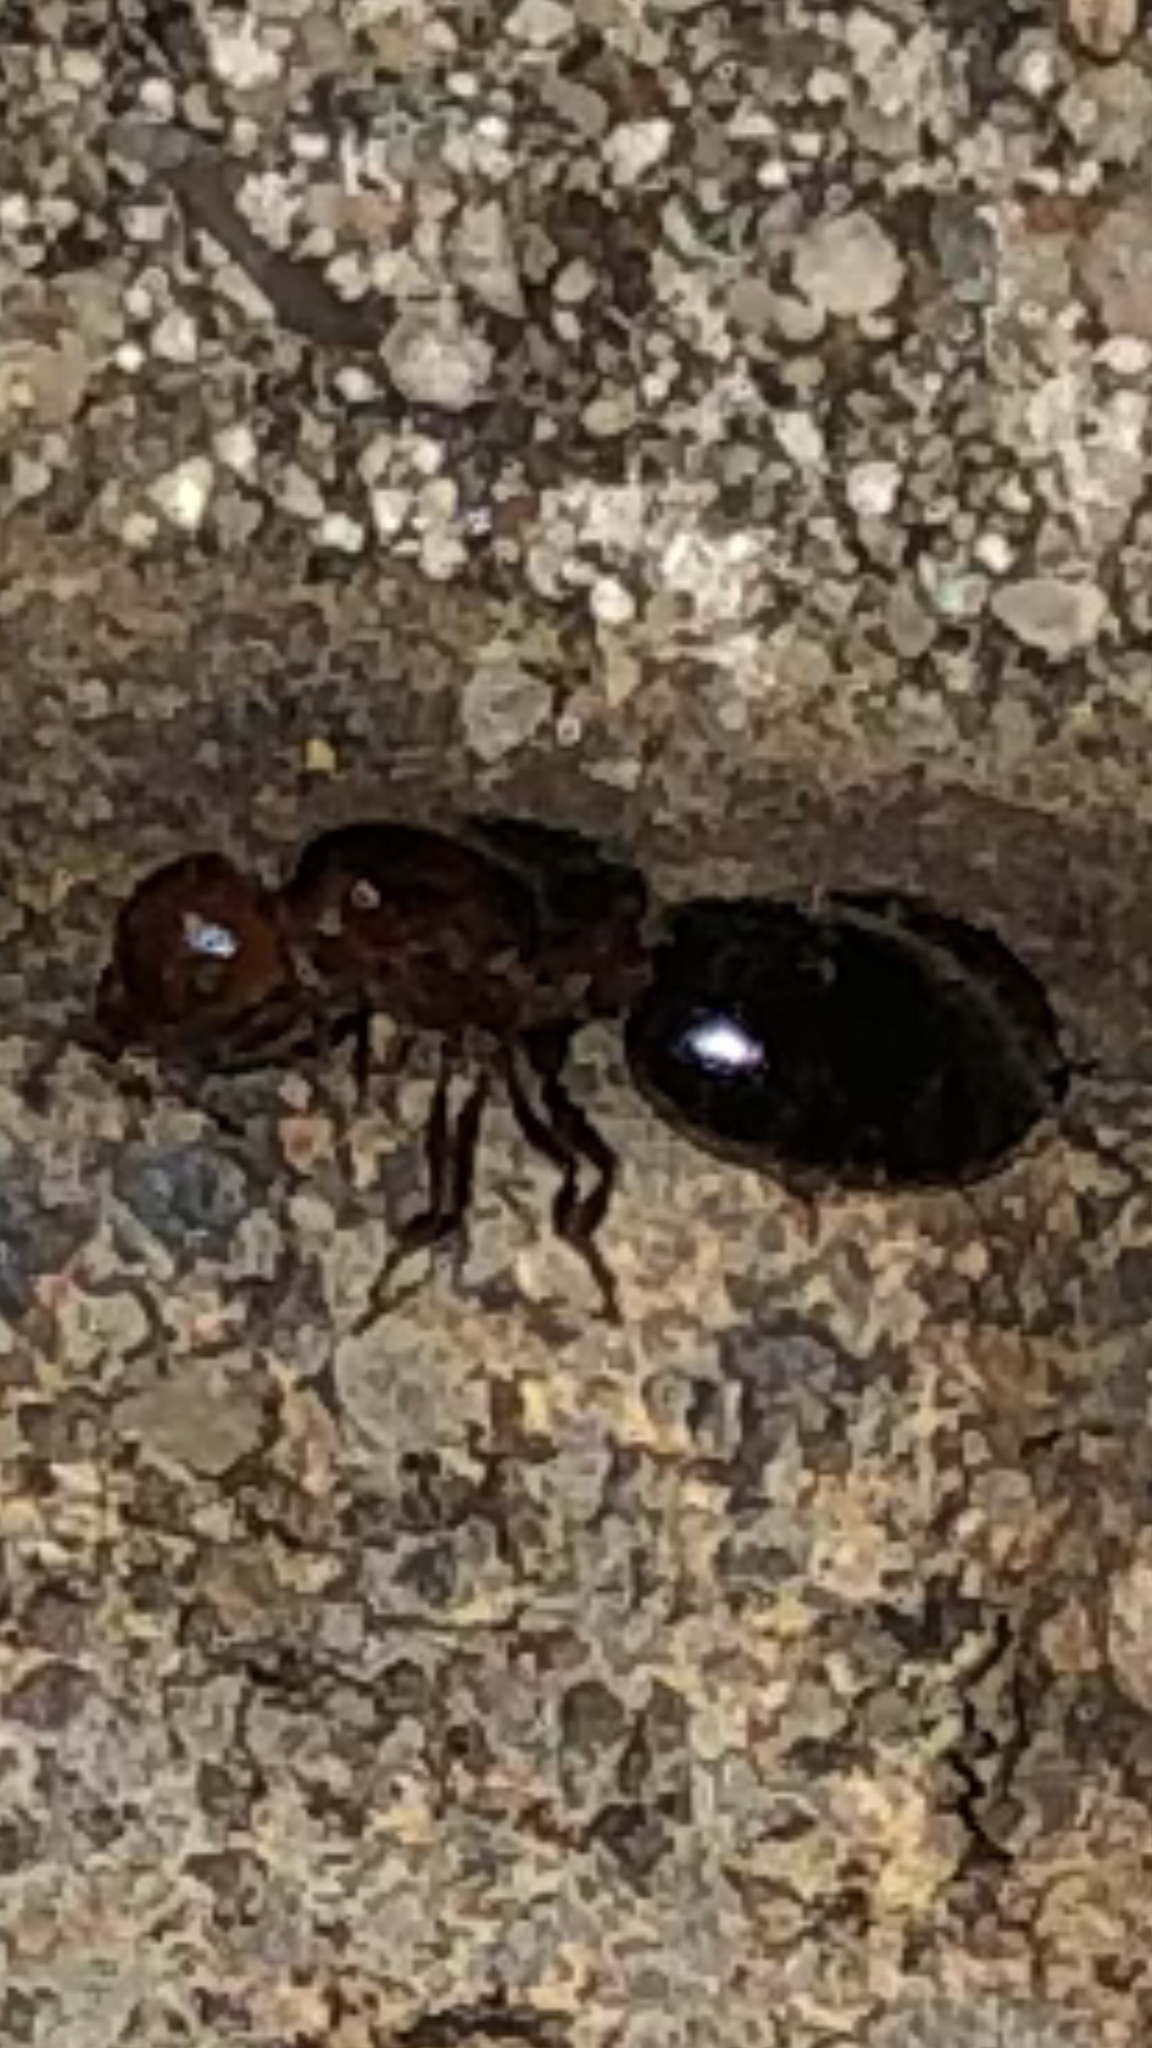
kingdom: Animalia
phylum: Arthropoda
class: Insecta
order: Hymenoptera
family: Formicidae
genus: Crematogaster
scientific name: Crematogaster laeviuscula
